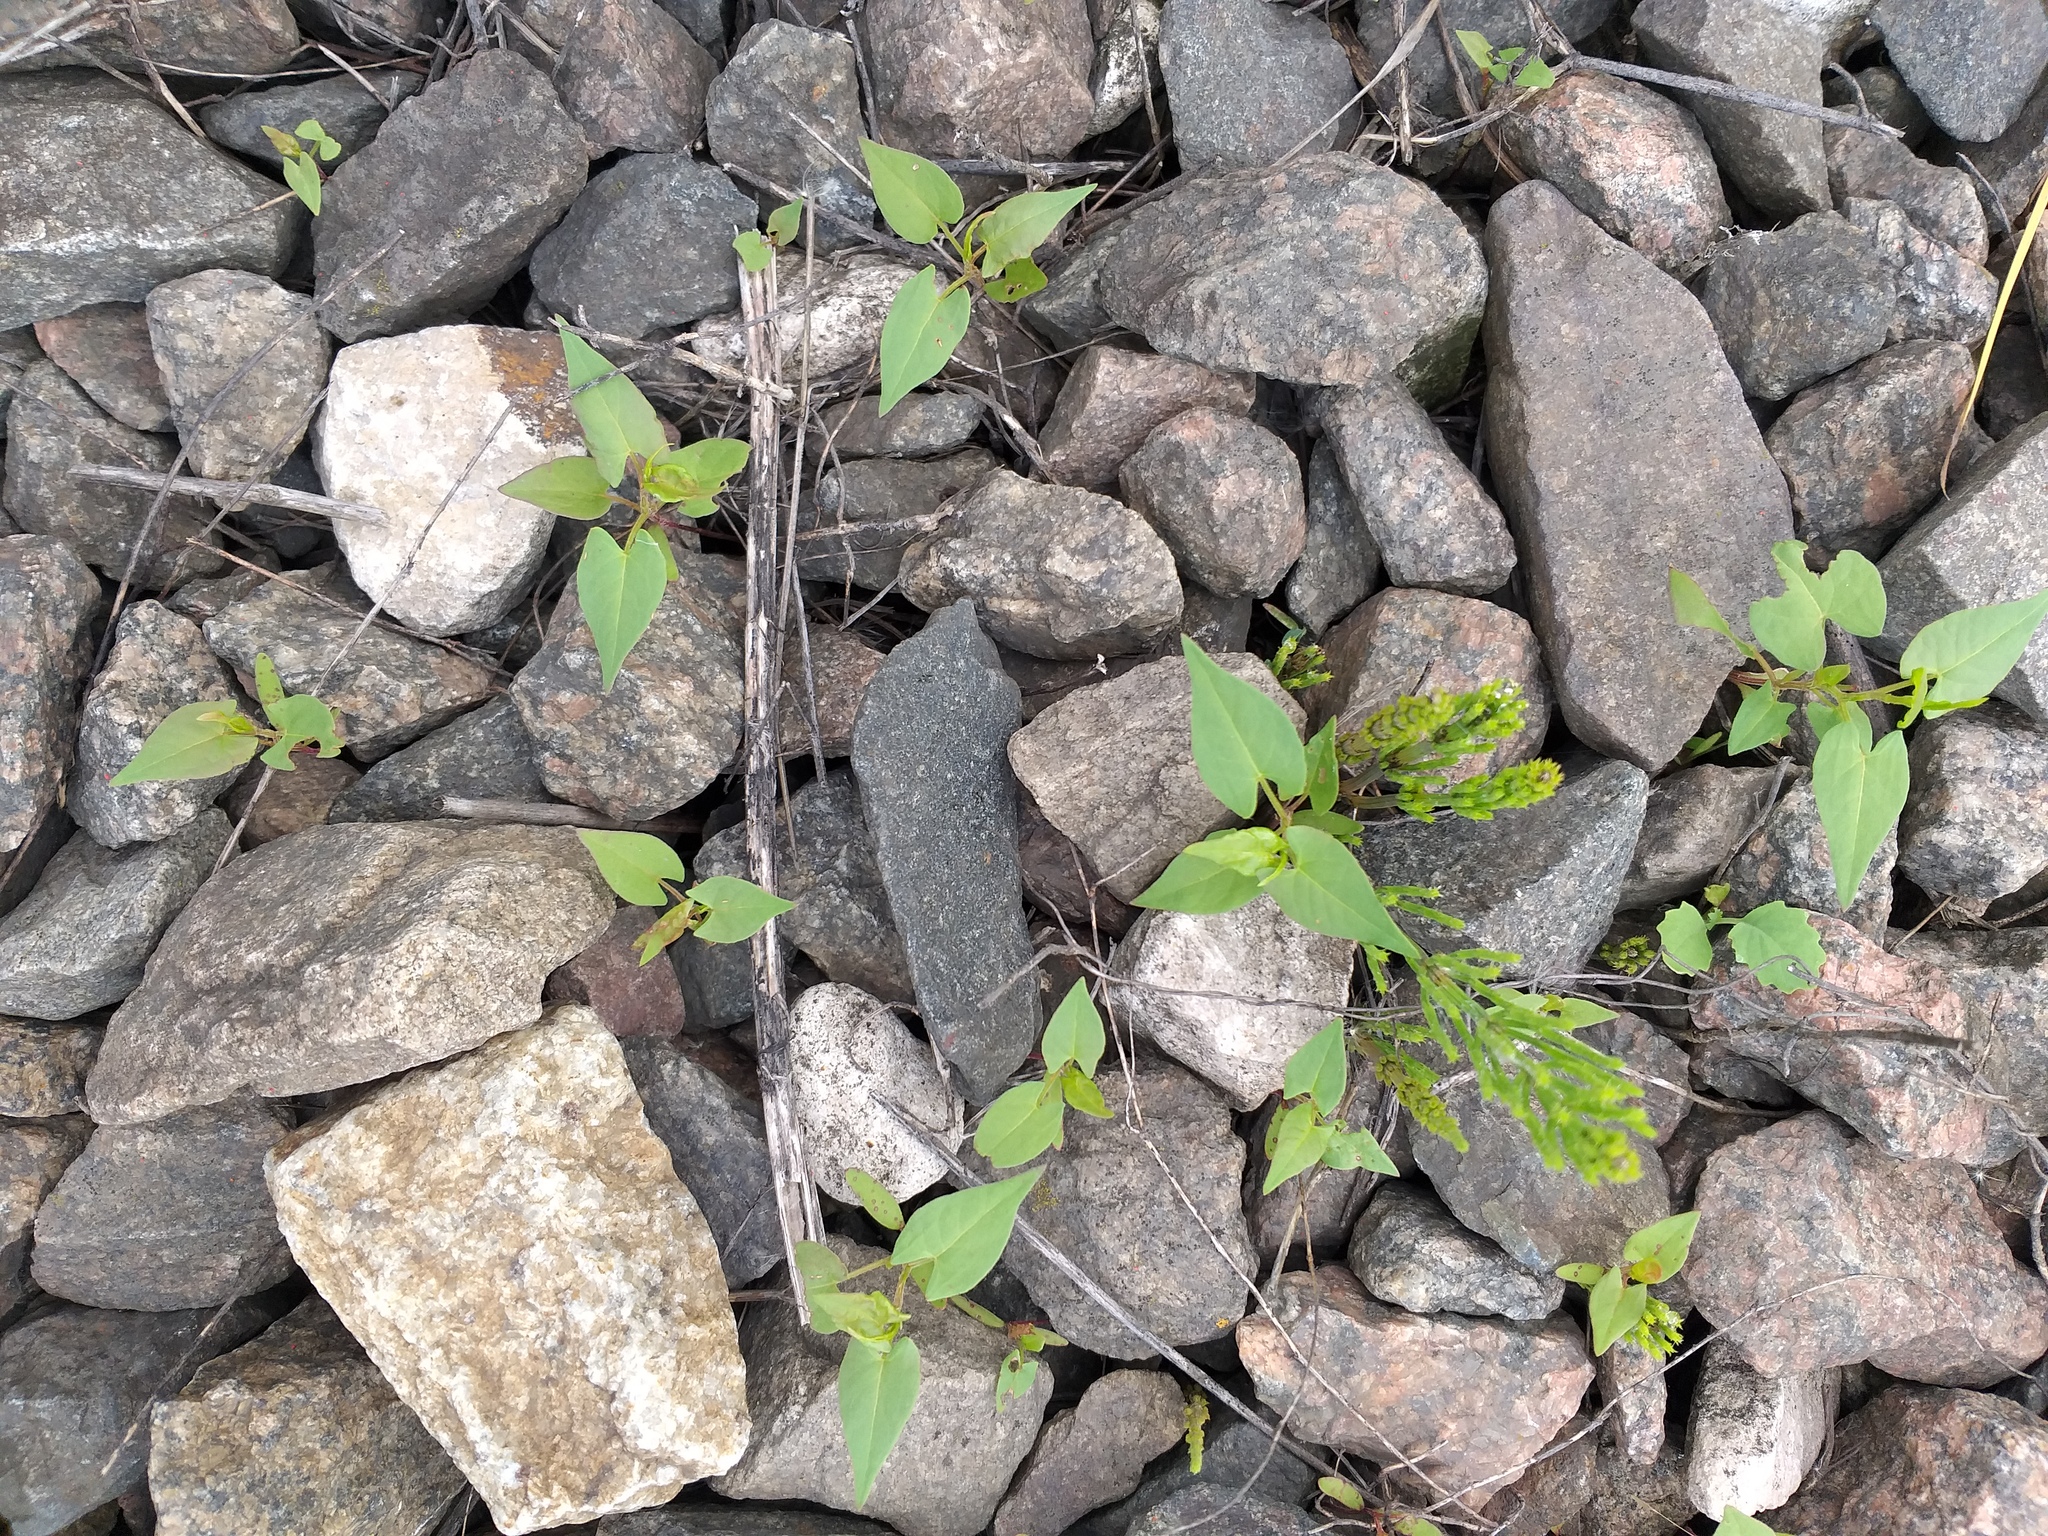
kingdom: Plantae
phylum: Tracheophyta
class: Magnoliopsida
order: Caryophyllales
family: Polygonaceae
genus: Fallopia
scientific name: Fallopia convolvulus
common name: Black bindweed
